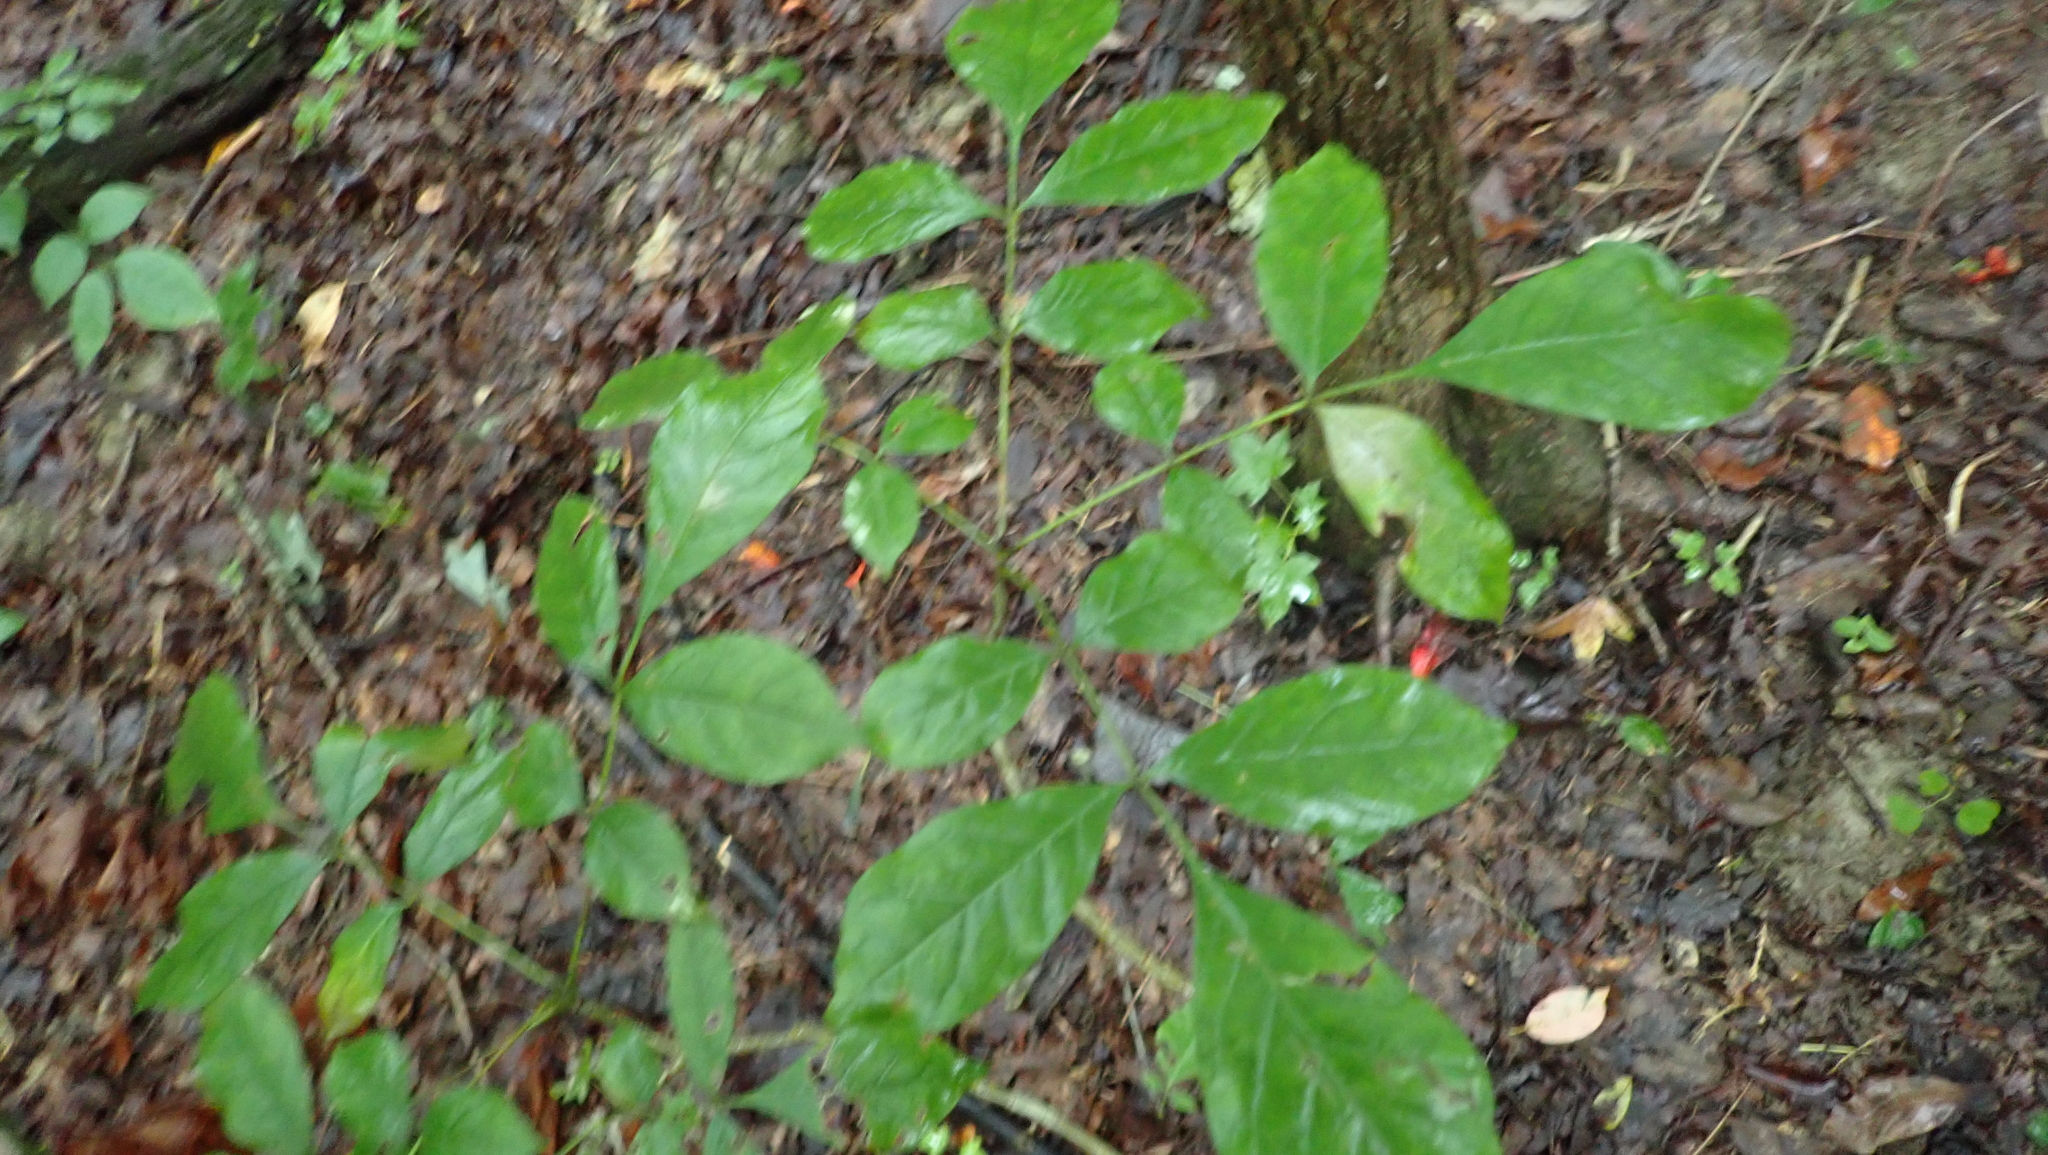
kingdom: Plantae
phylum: Tracheophyta
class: Magnoliopsida
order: Lamiales
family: Oleaceae
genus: Fraxinus
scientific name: Fraxinus americana
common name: White ash
